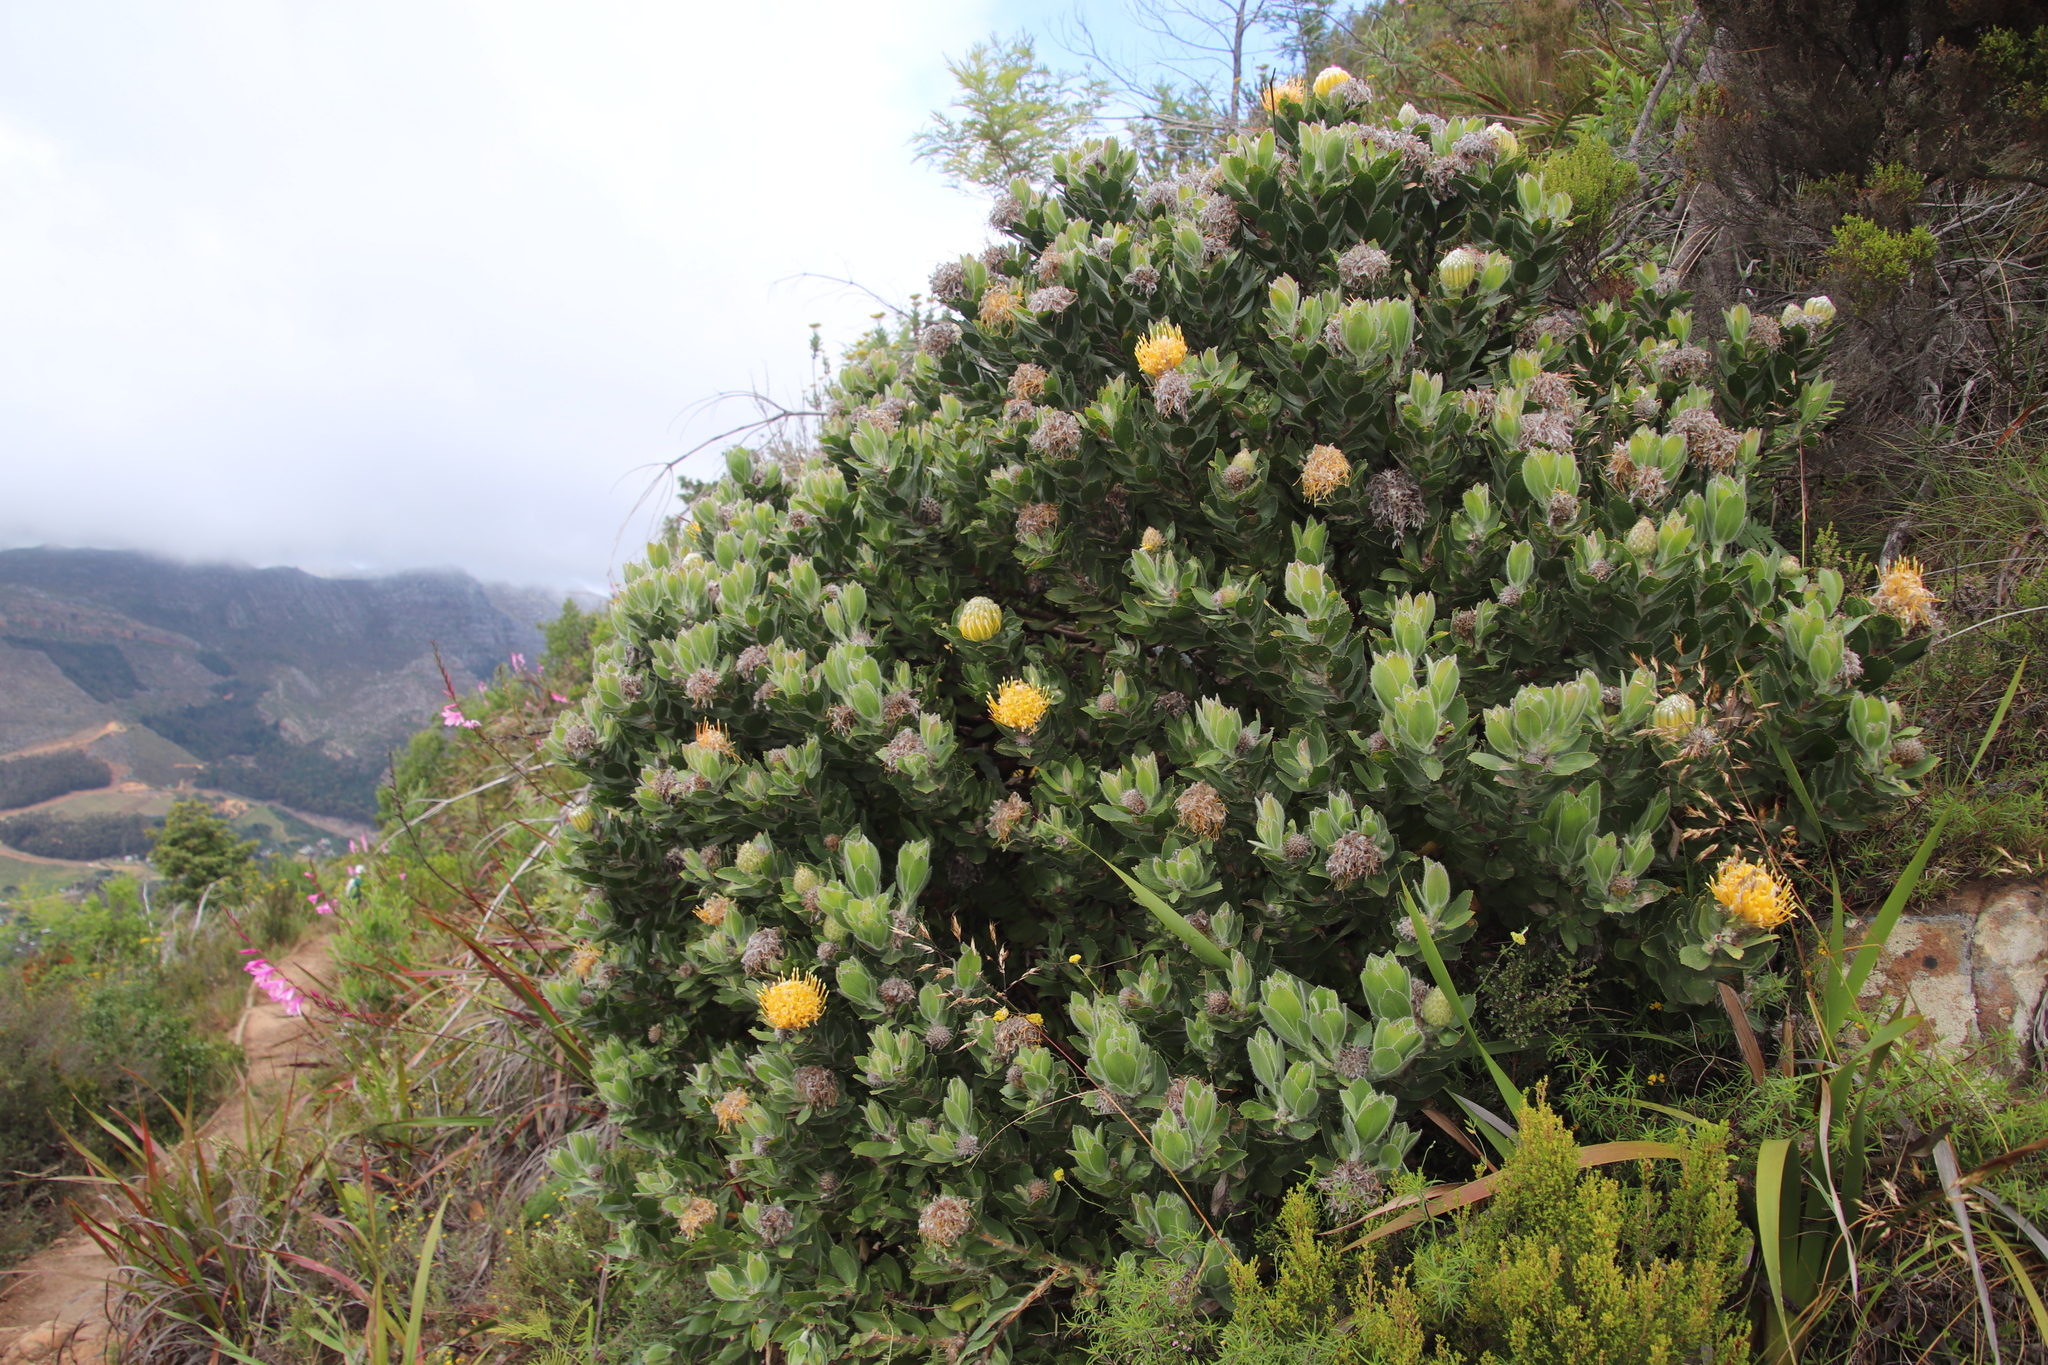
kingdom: Plantae
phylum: Tracheophyta
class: Magnoliopsida
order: Proteales
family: Proteaceae
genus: Leucospermum
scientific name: Leucospermum conocarpodendron
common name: Tree pincushion
